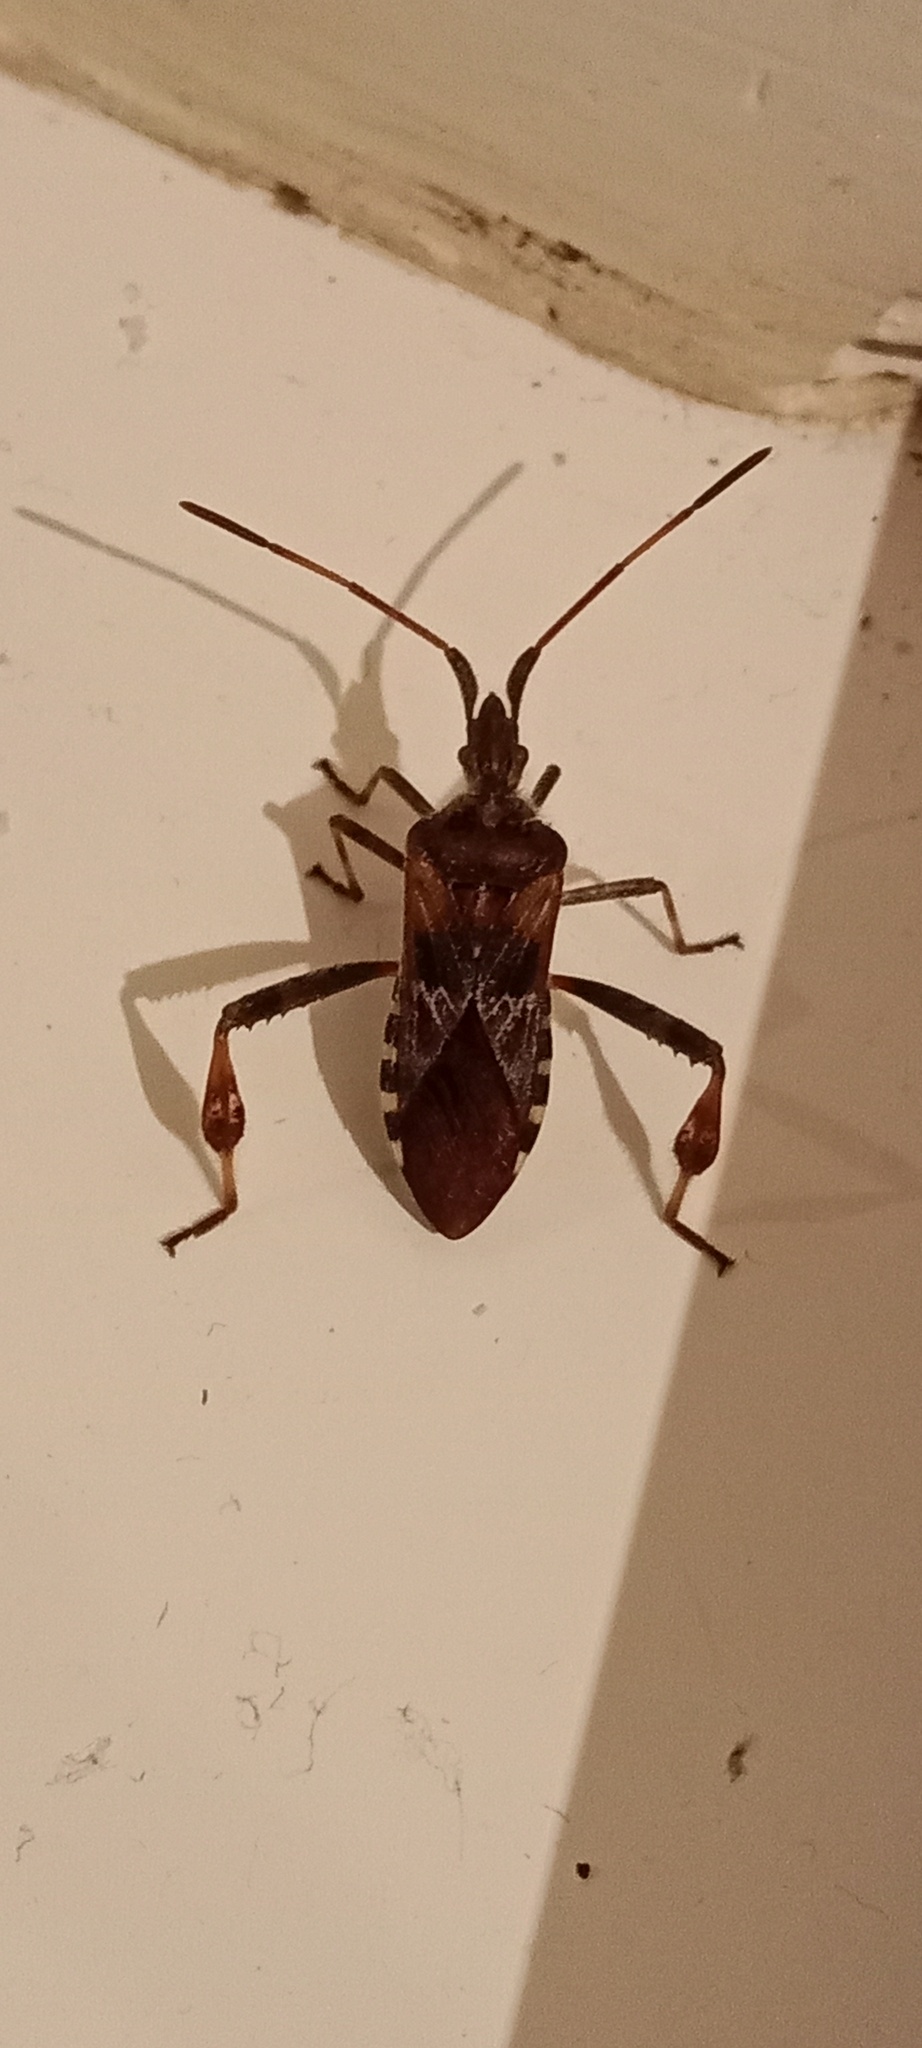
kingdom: Animalia
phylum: Arthropoda
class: Insecta
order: Hemiptera
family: Coreidae
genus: Leptoglossus
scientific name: Leptoglossus occidentalis
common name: Western conifer-seed bug
